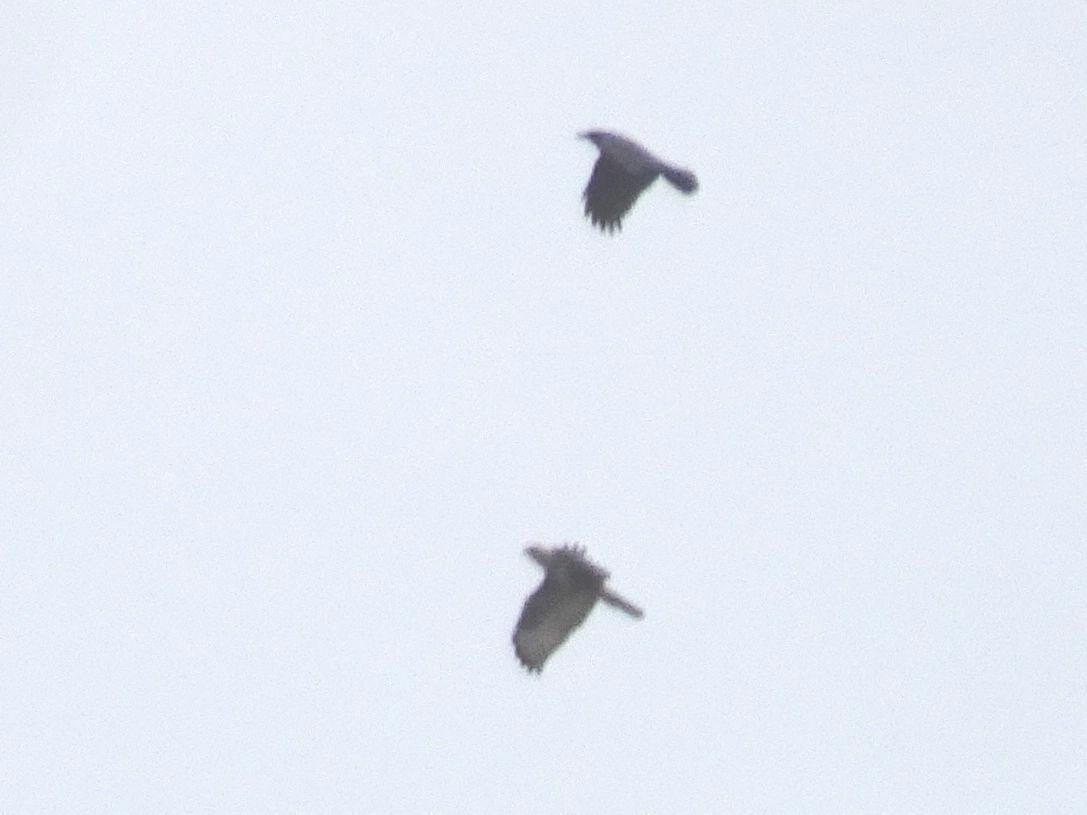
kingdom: Animalia
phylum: Chordata
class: Aves
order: Accipitriformes
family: Accipitridae
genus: Buteo
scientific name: Buteo buteo
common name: Common buzzard
